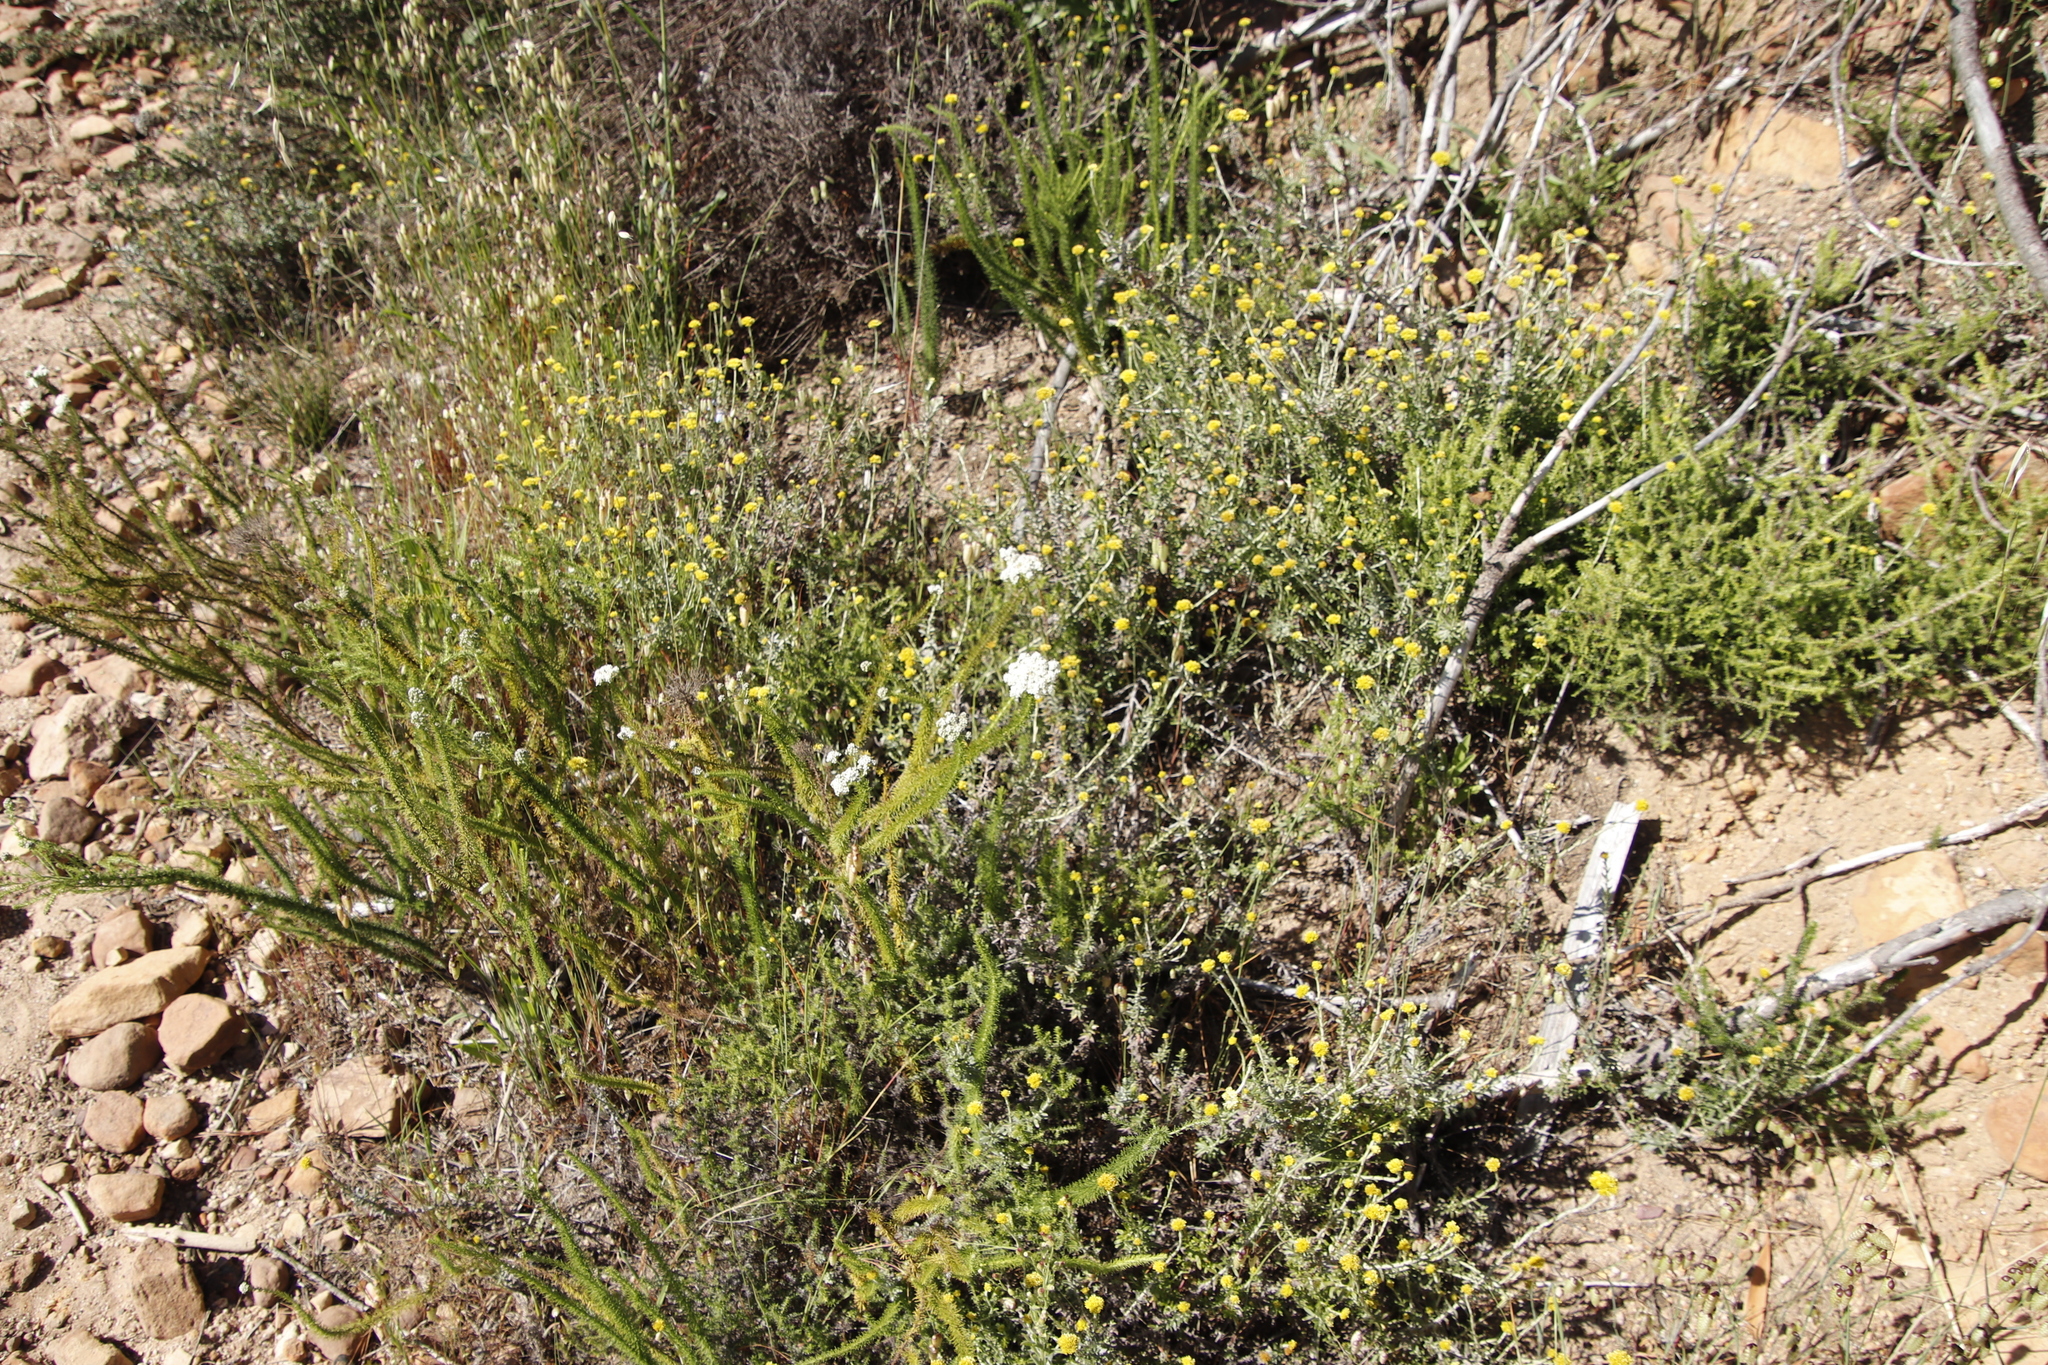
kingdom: Plantae
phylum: Tracheophyta
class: Magnoliopsida
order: Lamiales
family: Scrophulariaceae
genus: Selago
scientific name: Selago corymbosa
